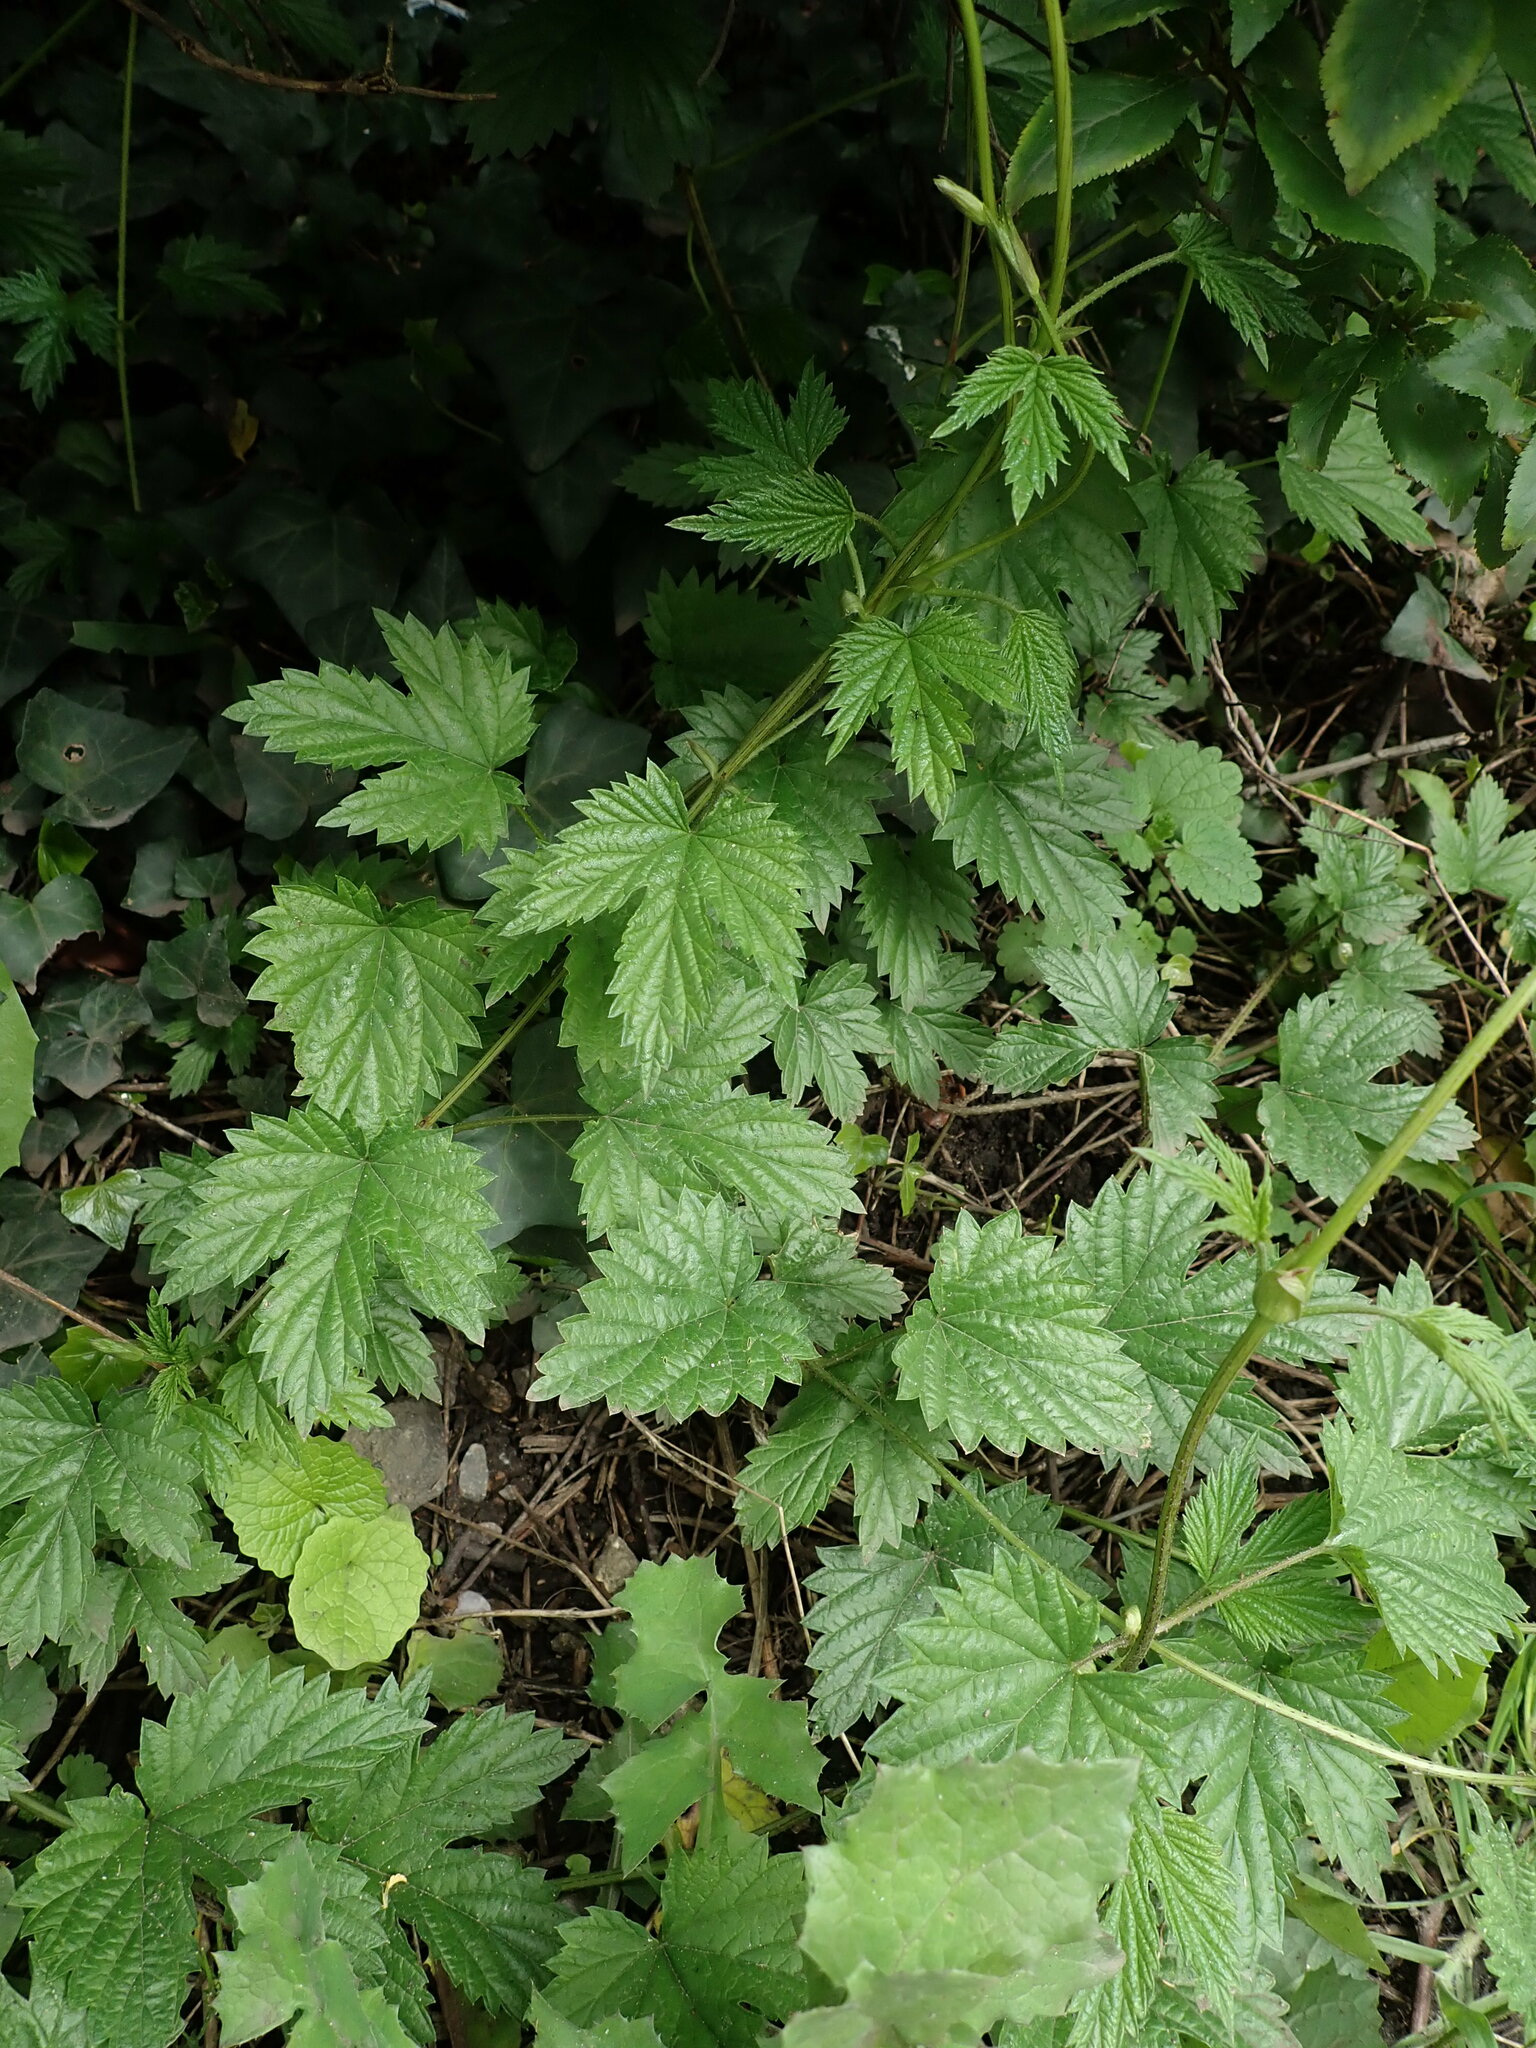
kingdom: Plantae
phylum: Tracheophyta
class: Magnoliopsida
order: Rosales
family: Cannabaceae
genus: Humulus
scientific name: Humulus lupulus
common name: Hop
